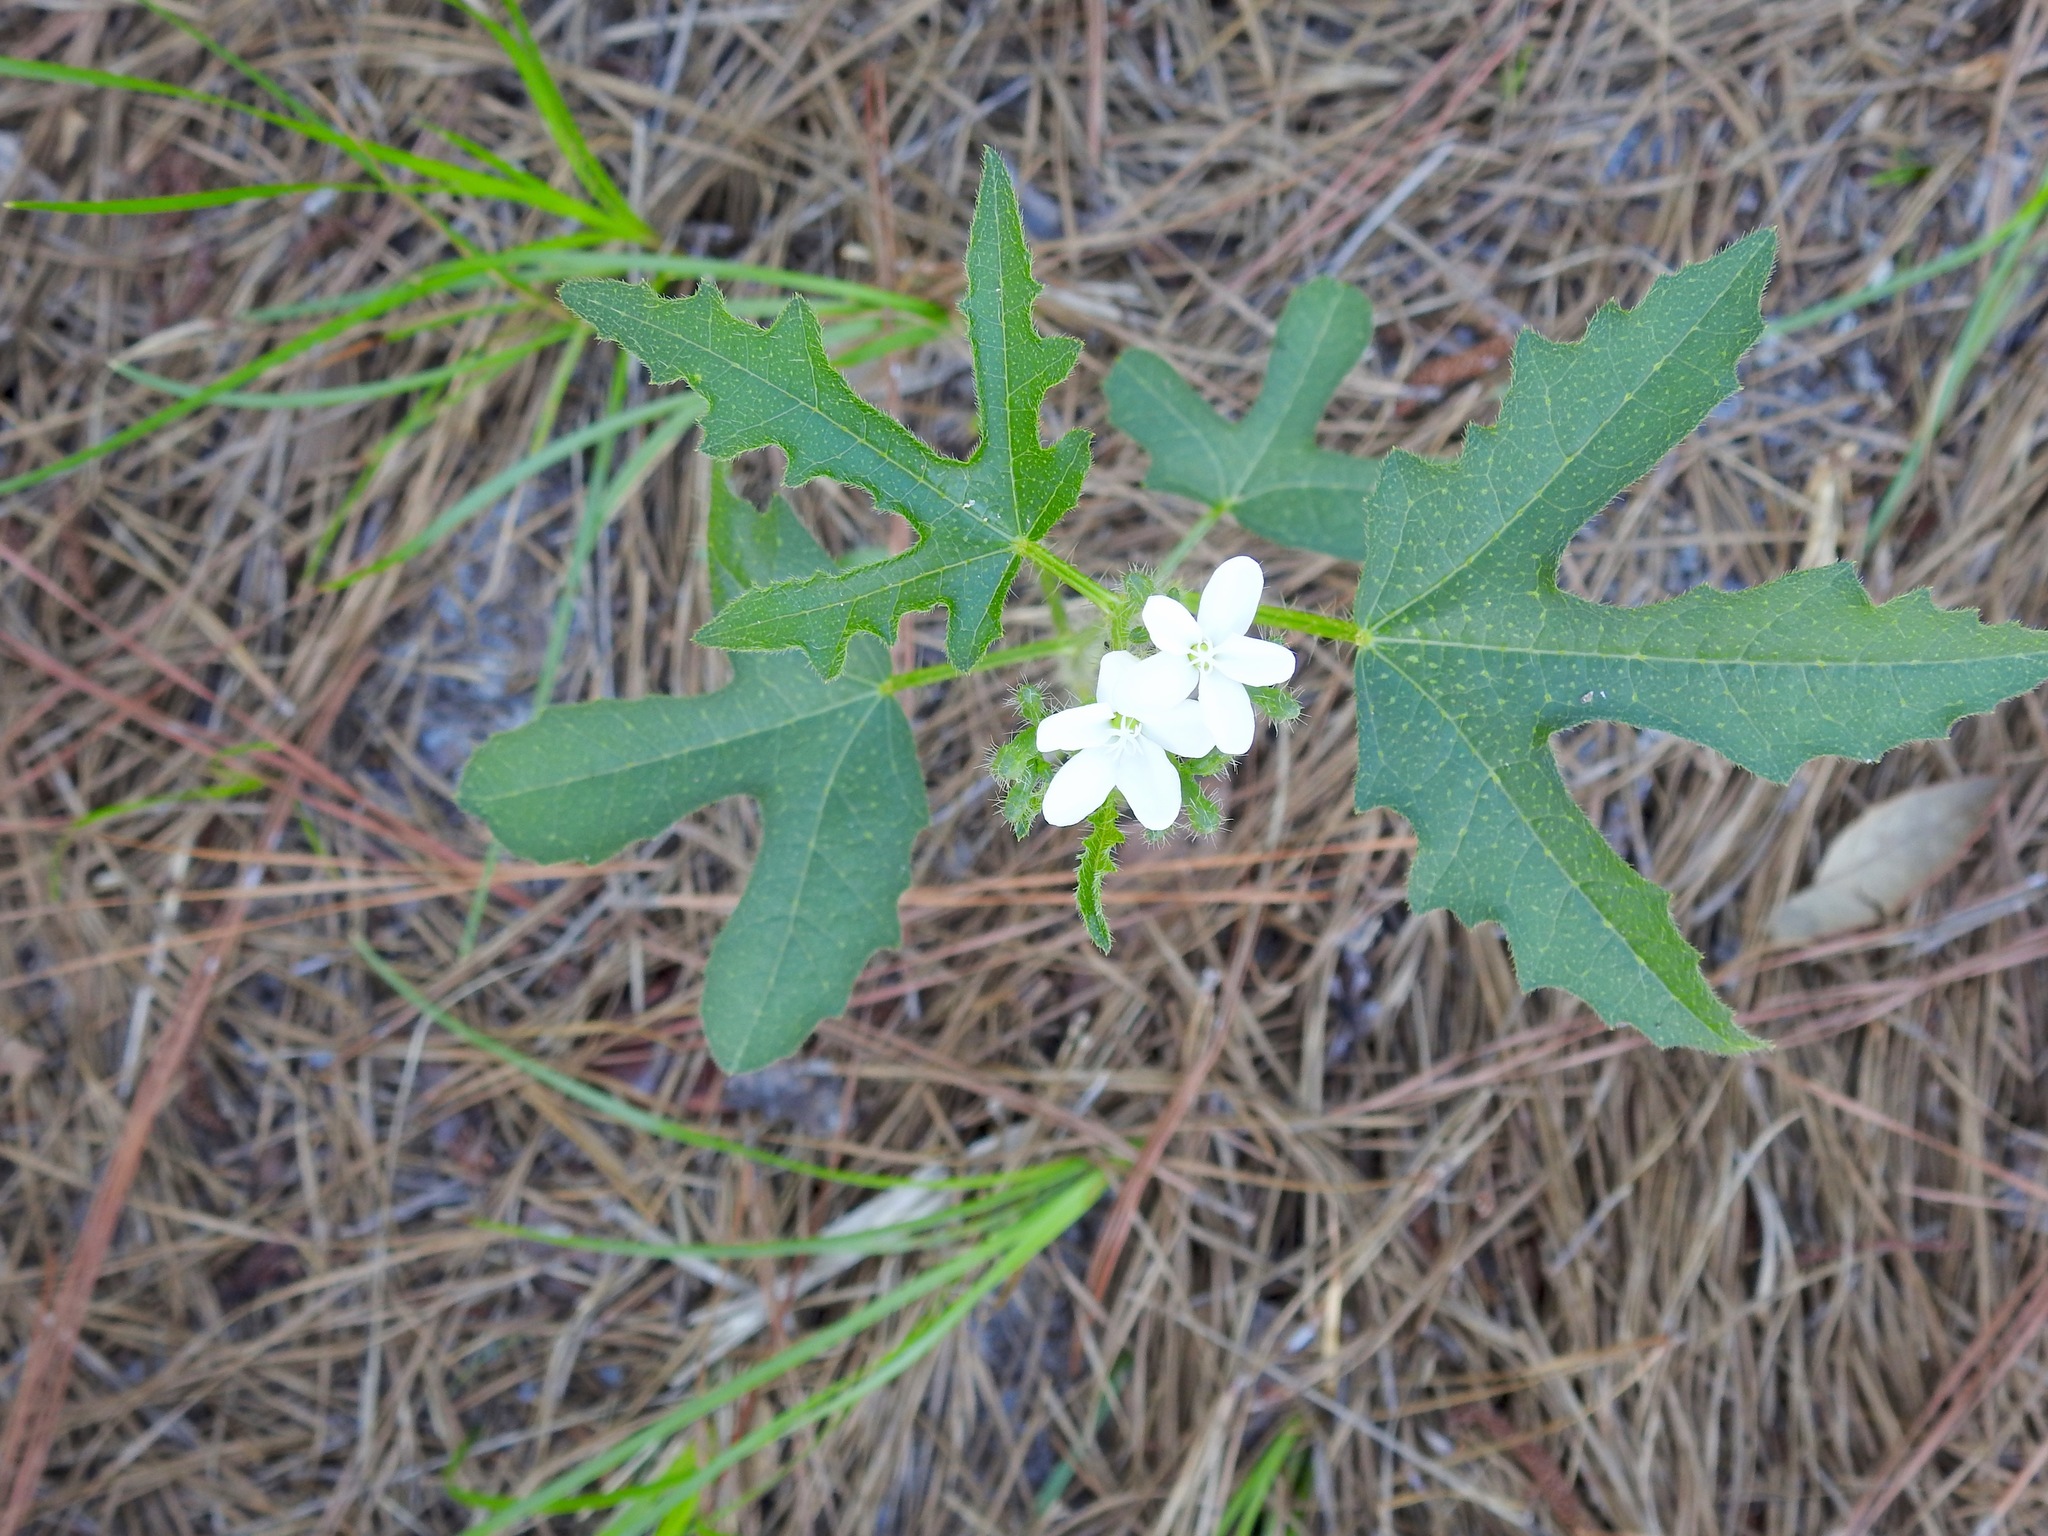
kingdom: Plantae
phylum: Tracheophyta
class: Magnoliopsida
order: Malpighiales
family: Euphorbiaceae
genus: Cnidoscolus
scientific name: Cnidoscolus stimulosus
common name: Bull-nettle
